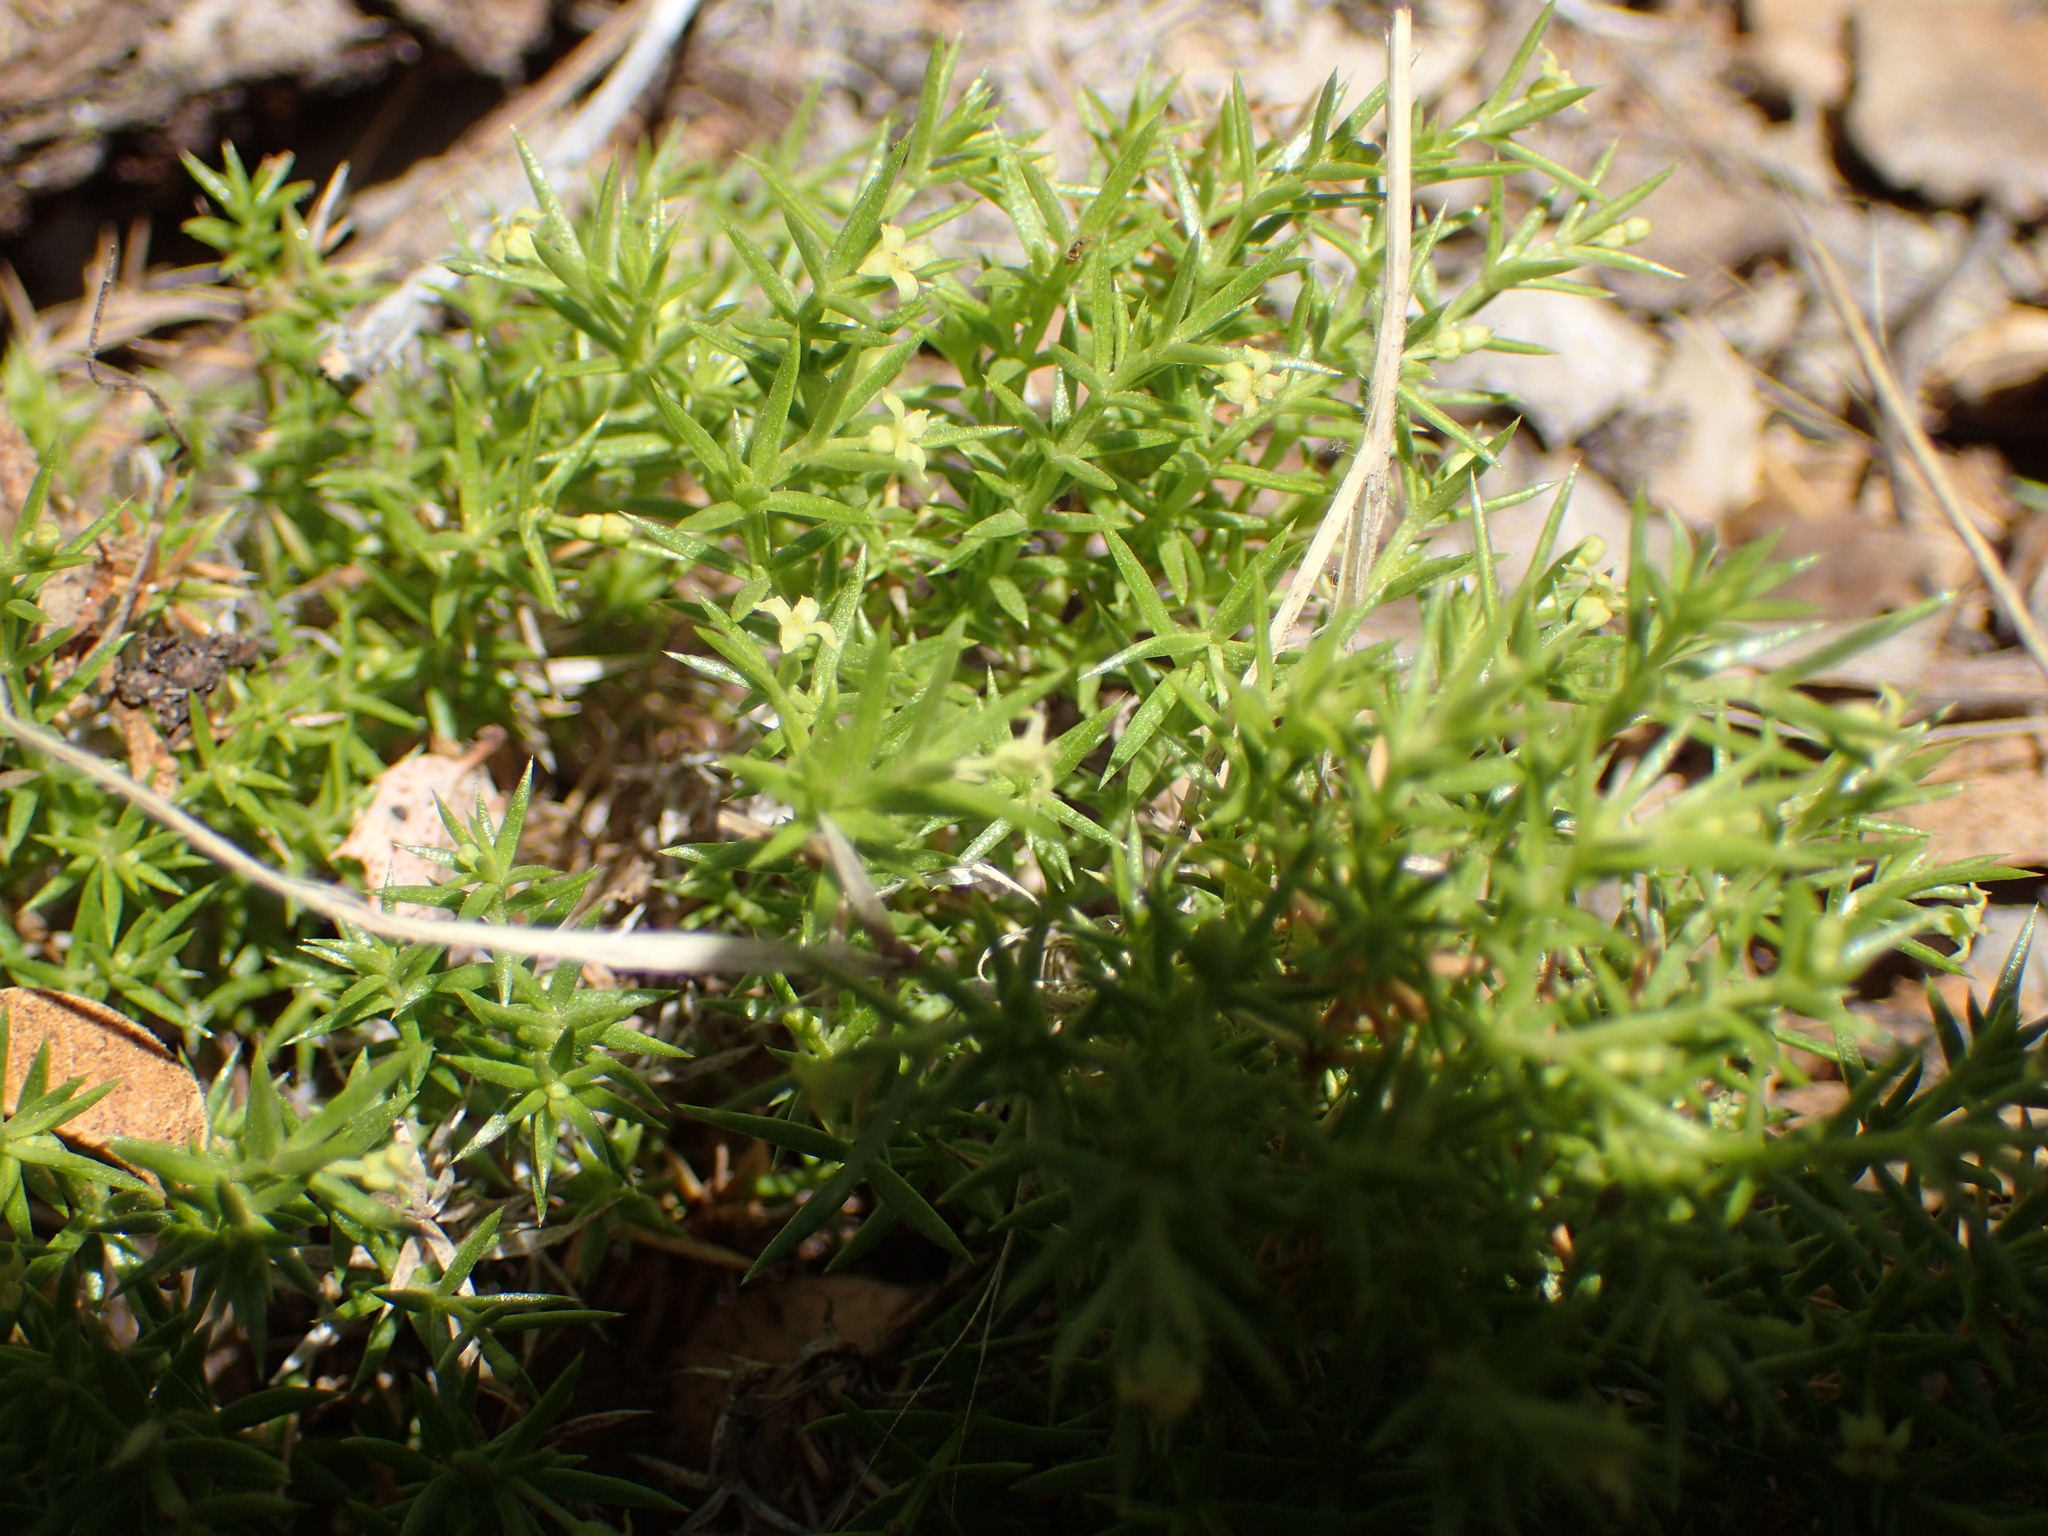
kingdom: Plantae
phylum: Tracheophyta
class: Magnoliopsida
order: Gentianales
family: Rubiaceae
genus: Galium
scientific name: Galium andrewsii
